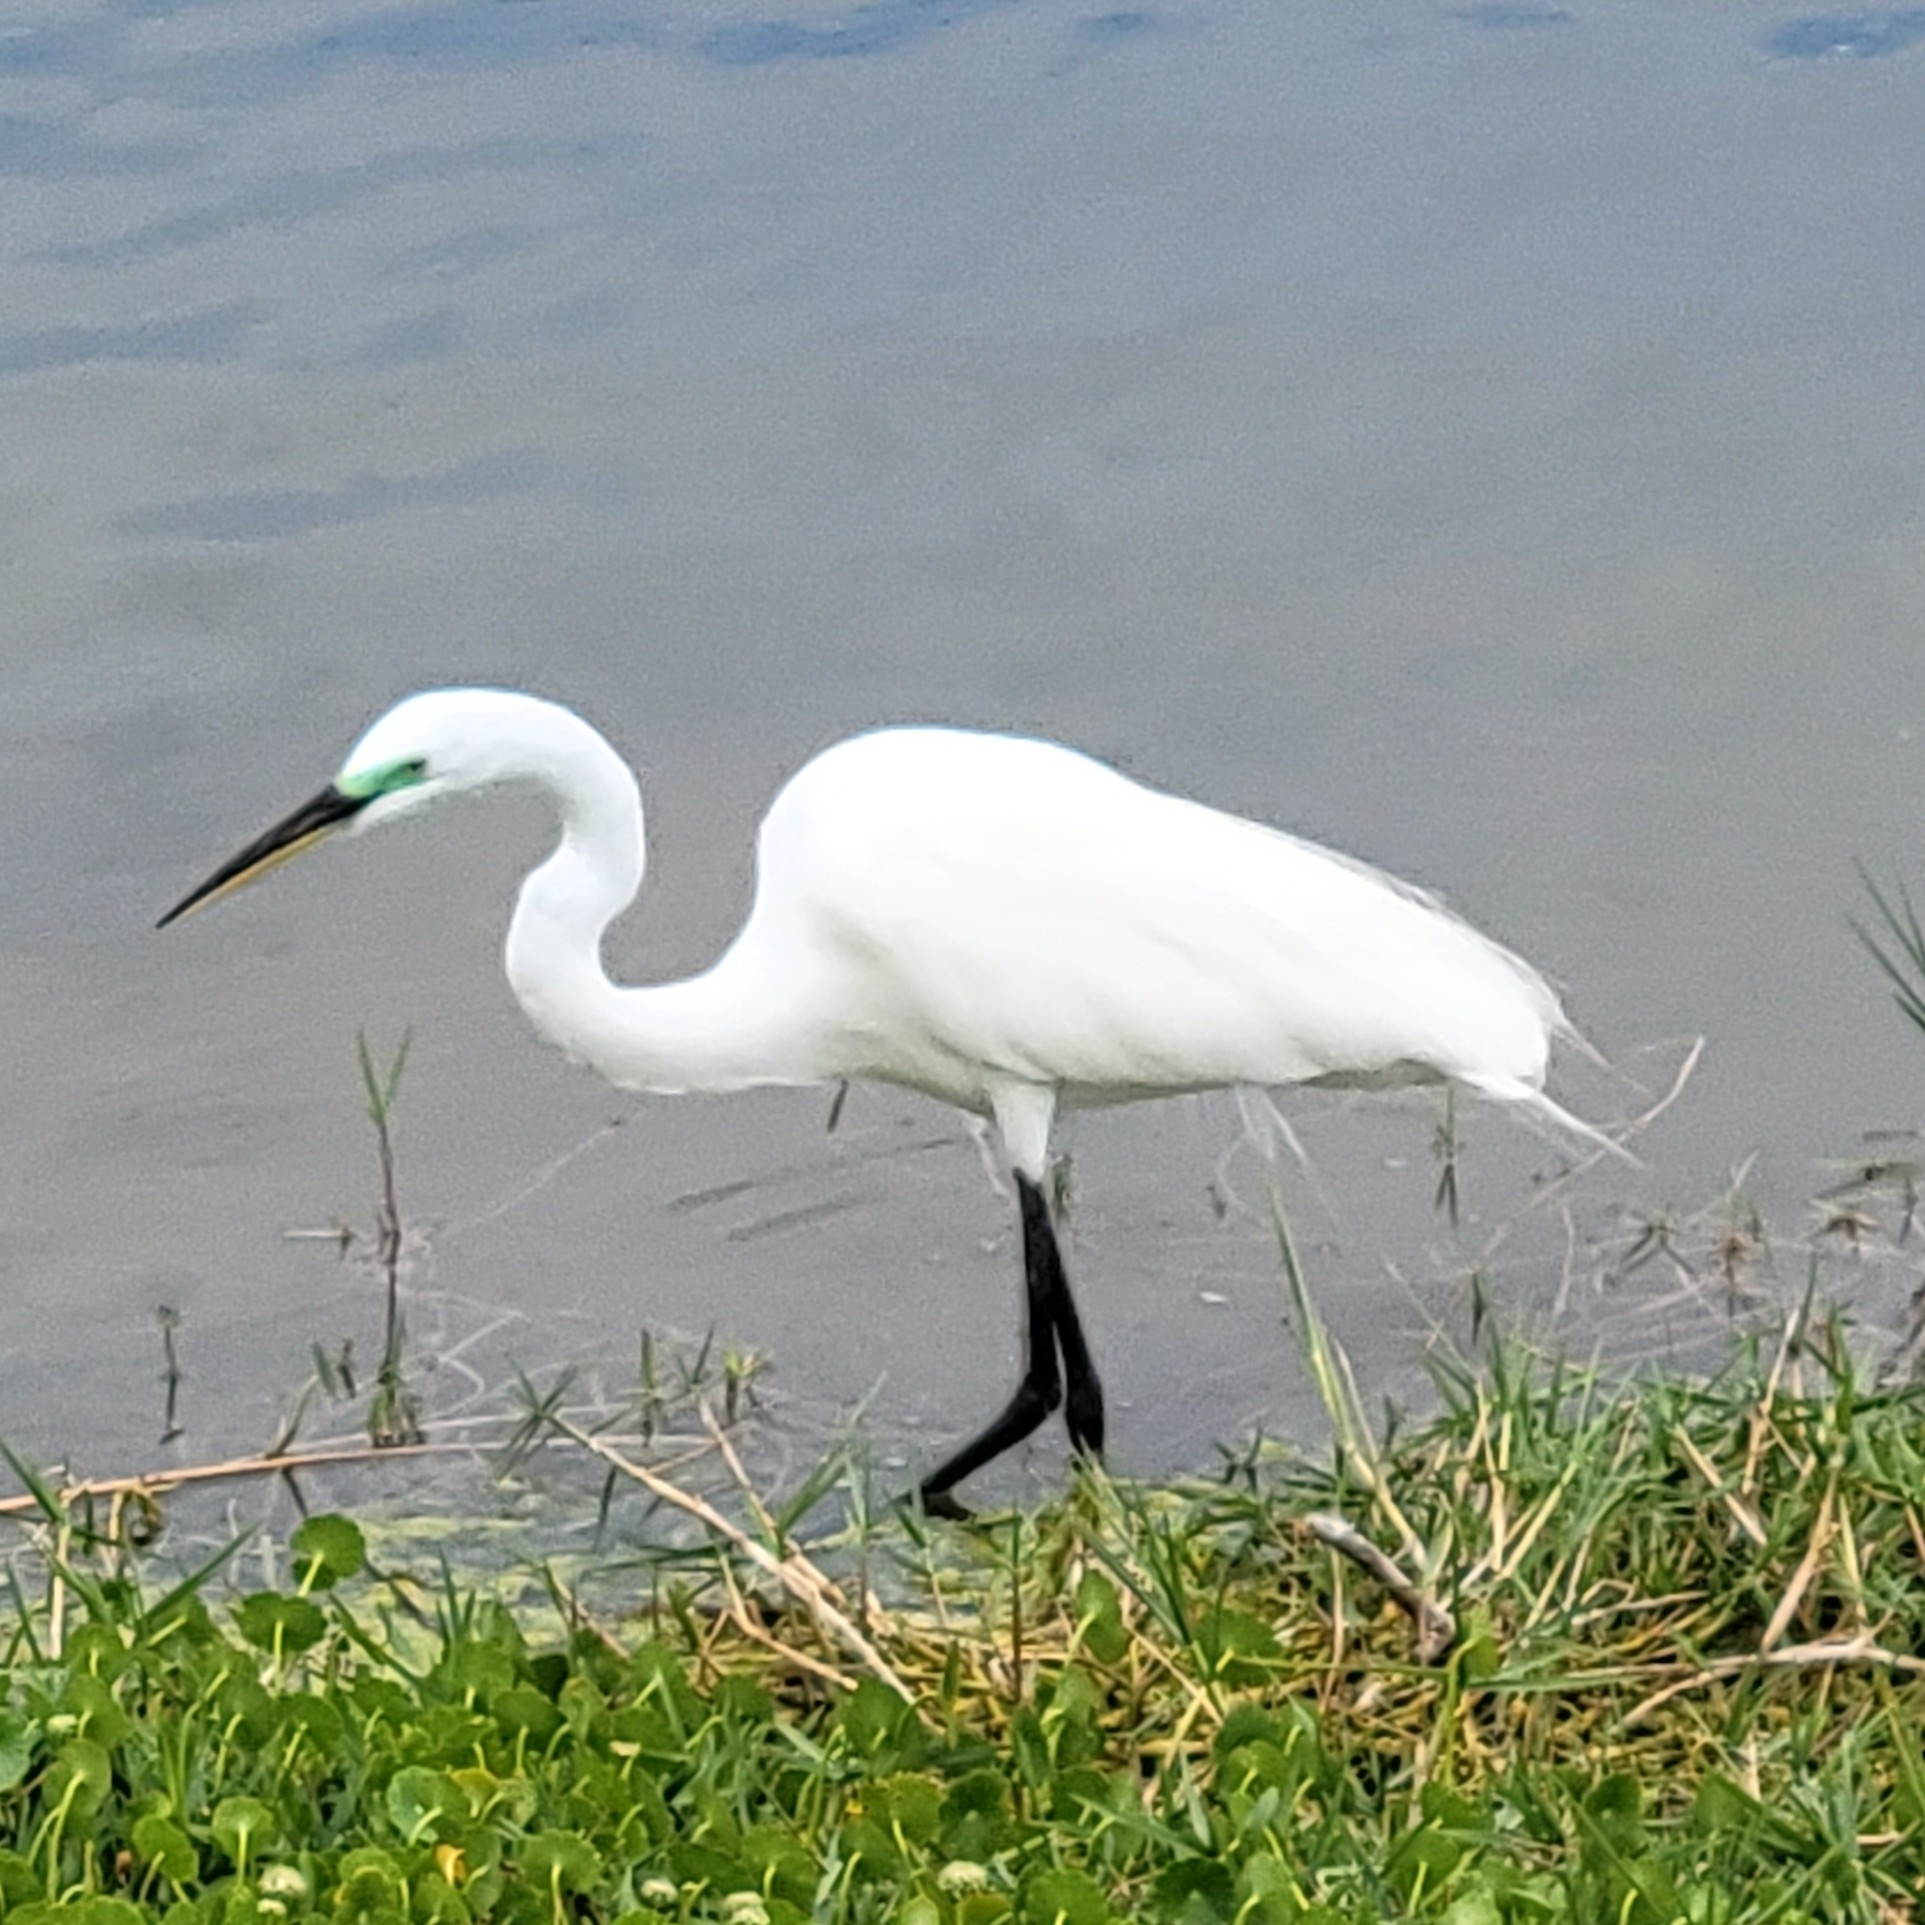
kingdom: Animalia
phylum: Chordata
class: Aves
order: Pelecaniformes
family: Ardeidae
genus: Ardea
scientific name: Ardea alba
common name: Great egret
